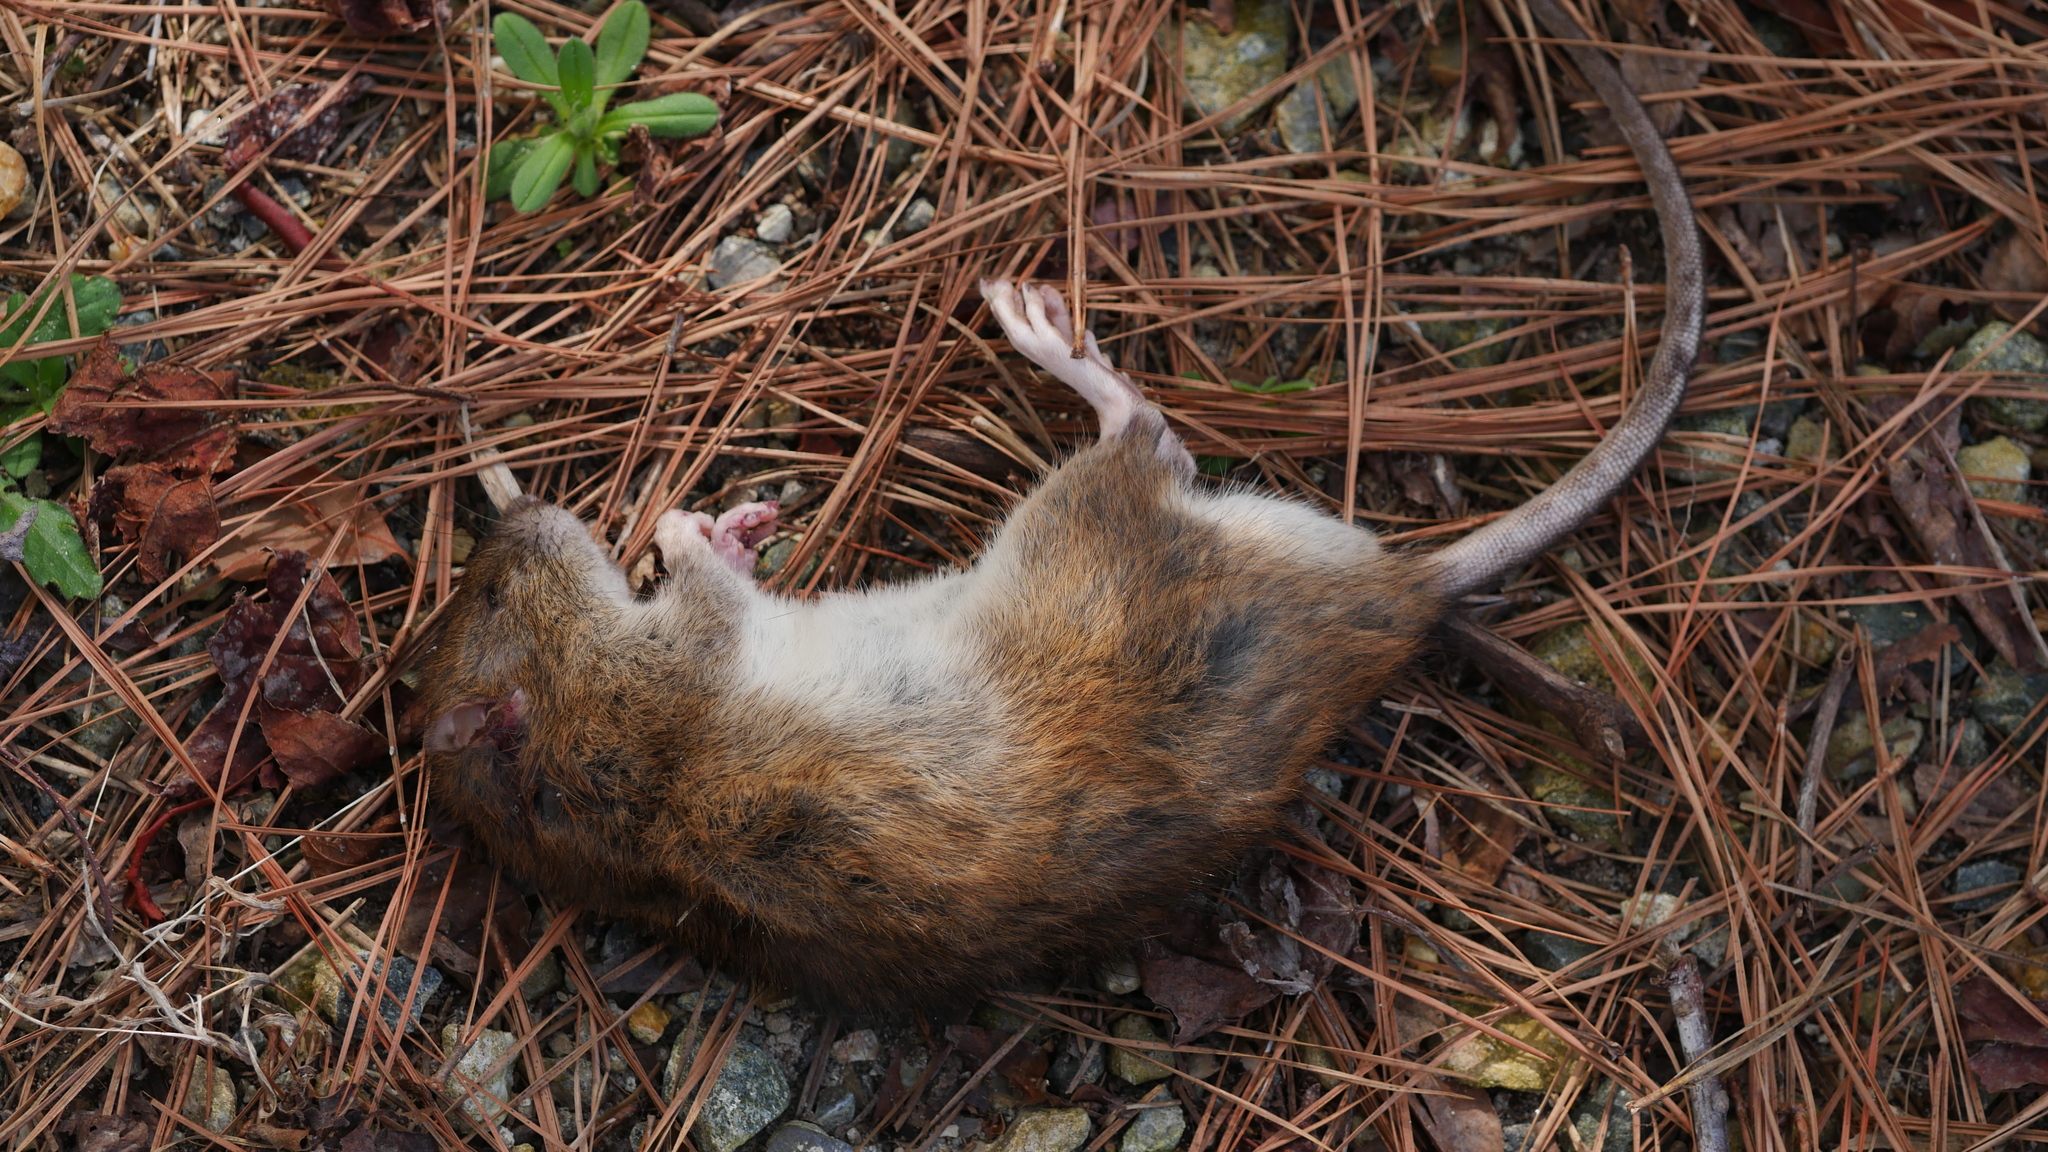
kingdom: Animalia
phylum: Chordata
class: Mammalia
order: Rodentia
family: Muridae
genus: Rattus
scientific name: Rattus norvegicus
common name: Brown rat
